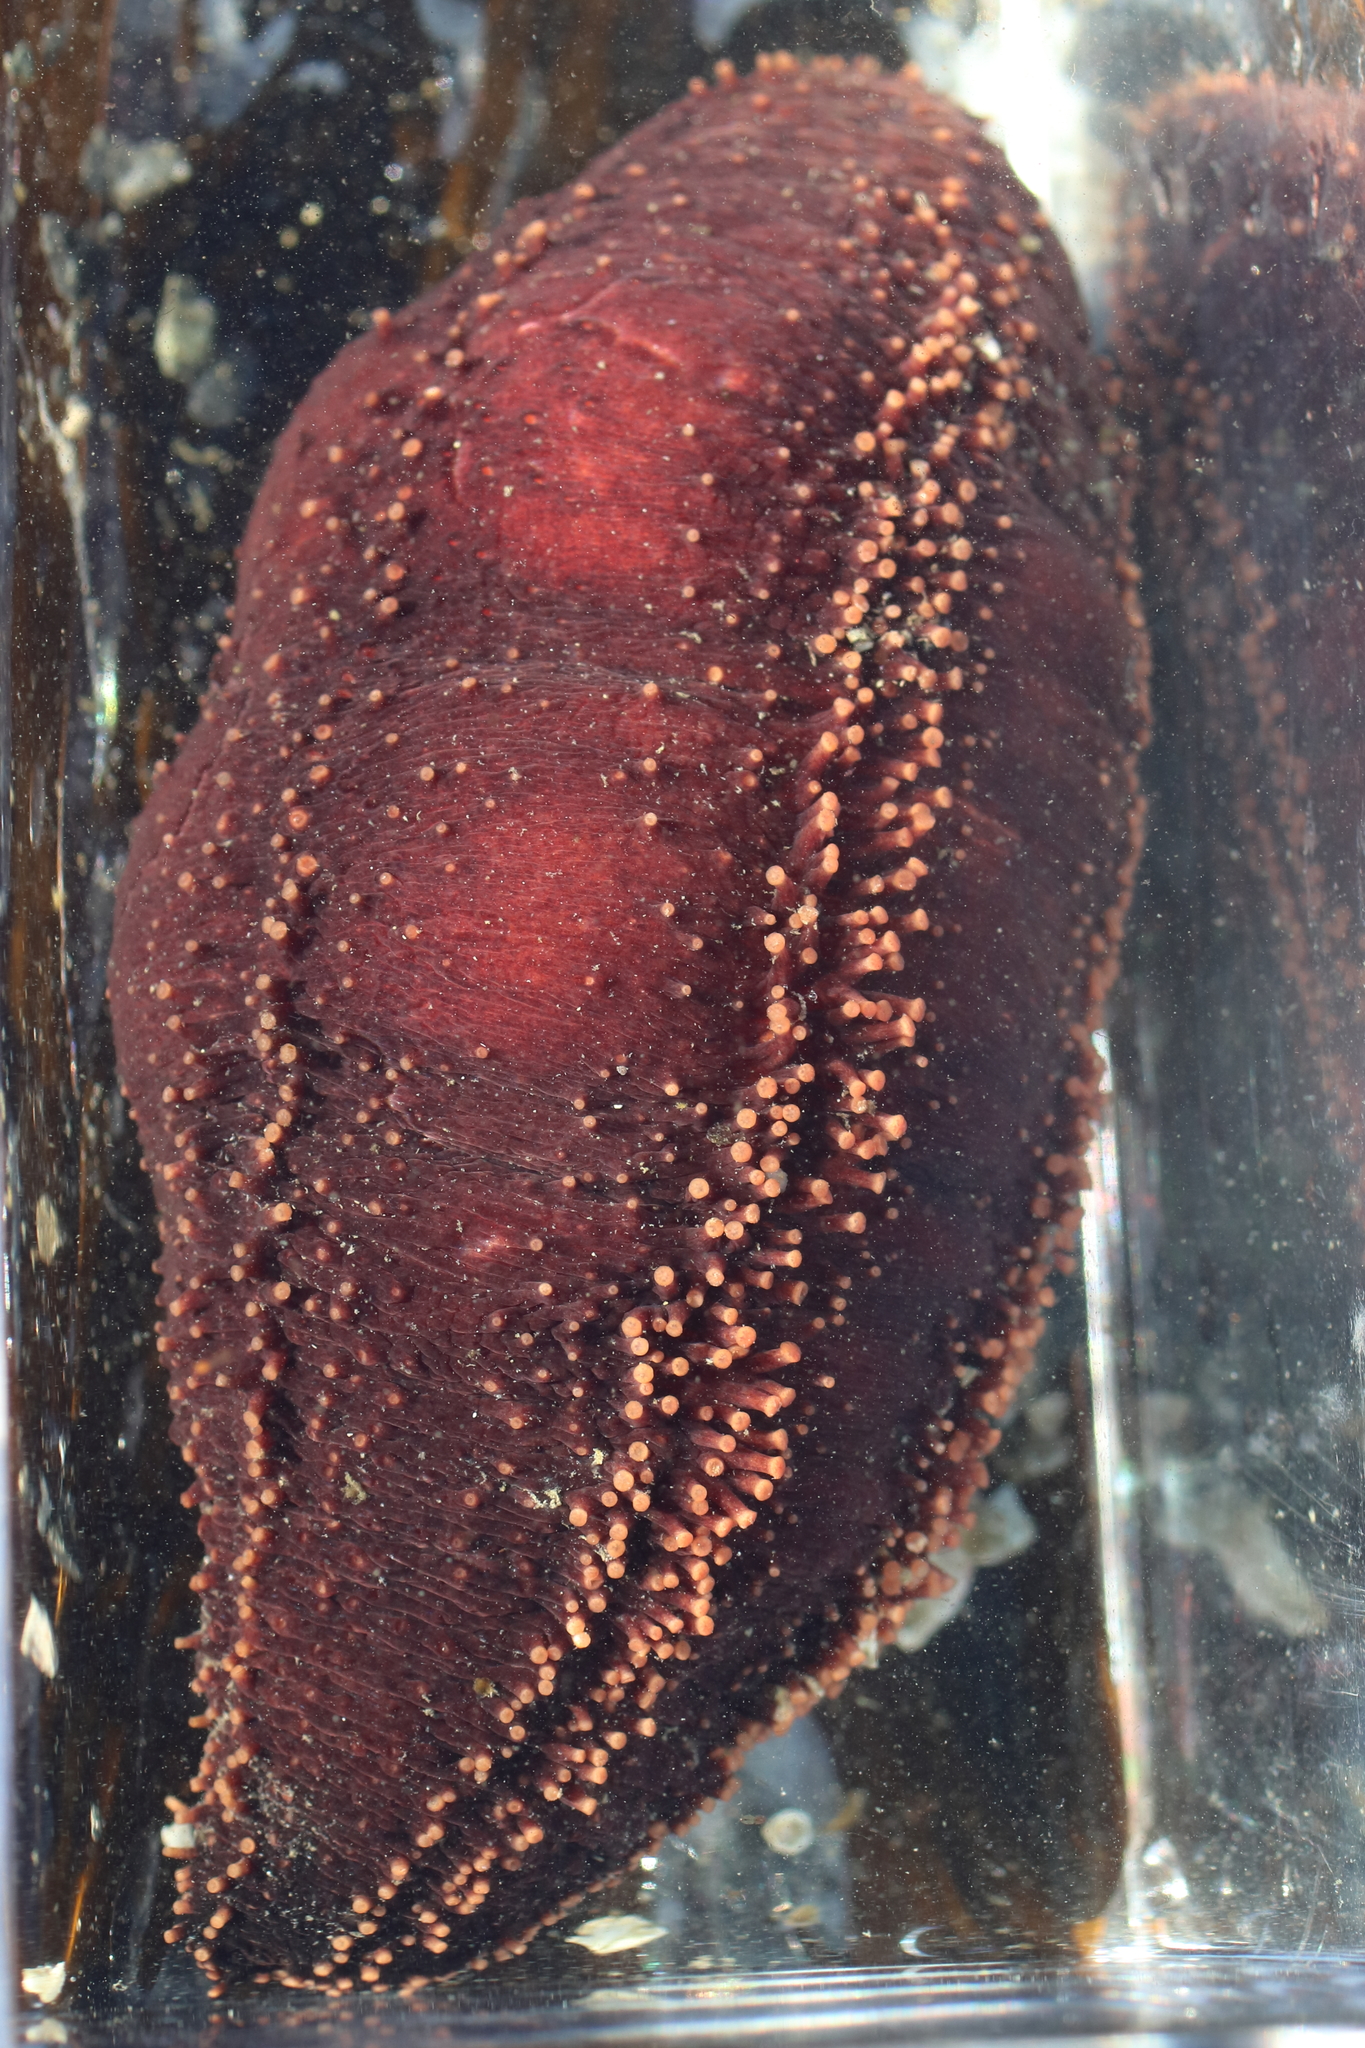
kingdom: Animalia
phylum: Echinodermata
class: Holothuroidea
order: Dendrochirotida
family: Cucumariidae
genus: Cucumaria
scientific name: Cucumaria miniata
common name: Orange sea cucumber
